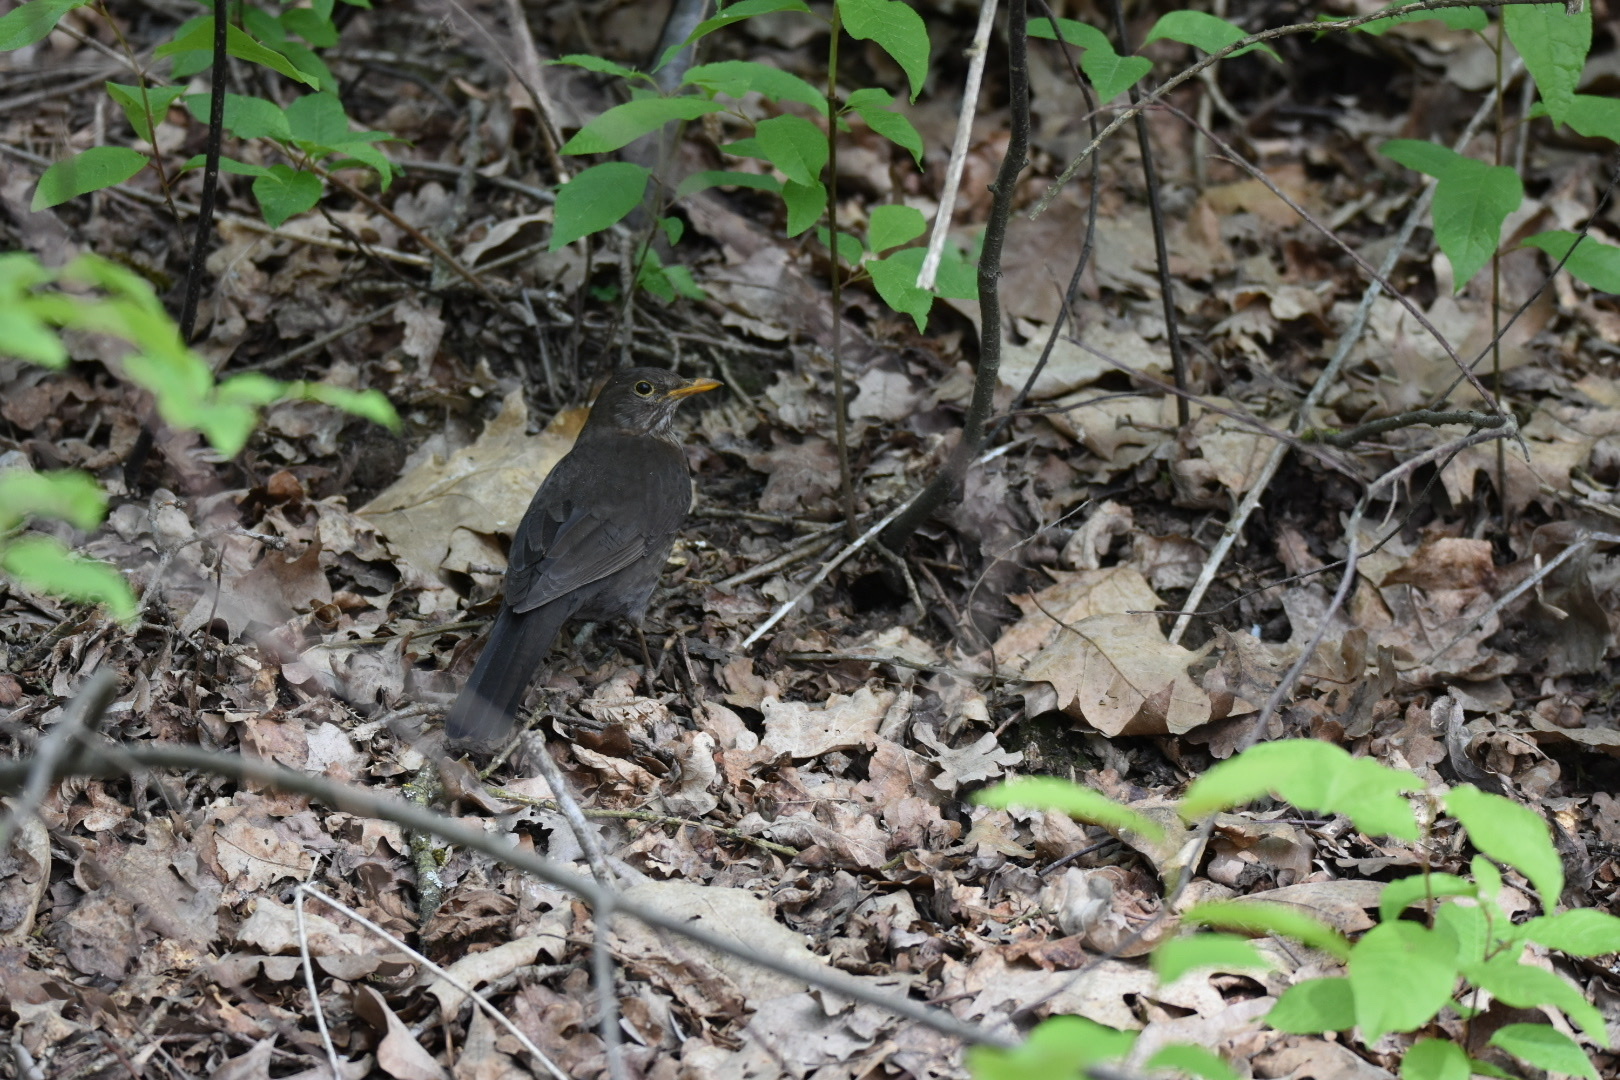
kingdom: Animalia
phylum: Chordata
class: Aves
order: Passeriformes
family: Turdidae
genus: Turdus
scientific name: Turdus merula
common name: Common blackbird
